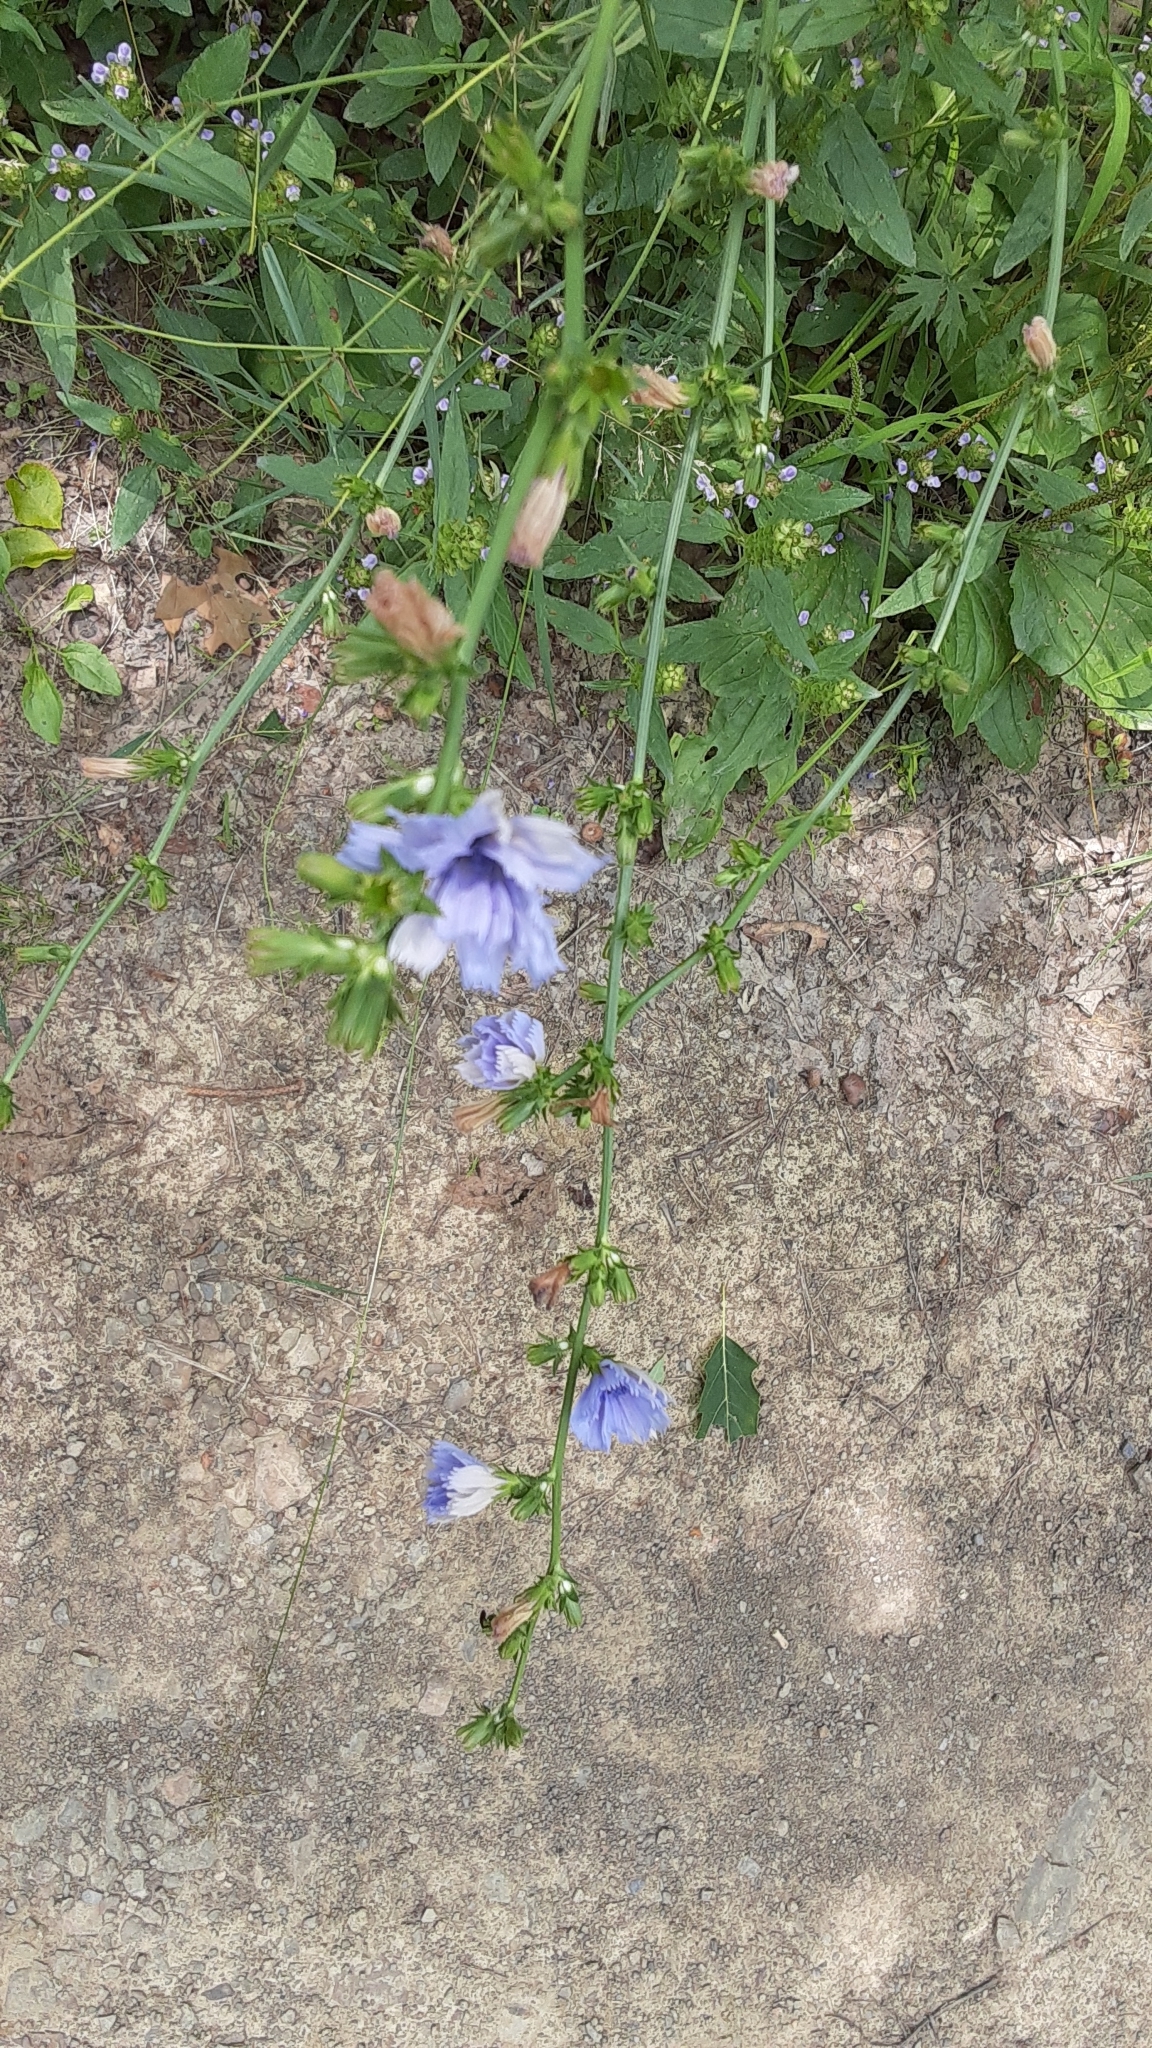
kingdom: Plantae
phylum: Tracheophyta
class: Magnoliopsida
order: Asterales
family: Asteraceae
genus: Cichorium
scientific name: Cichorium intybus
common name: Chicory
